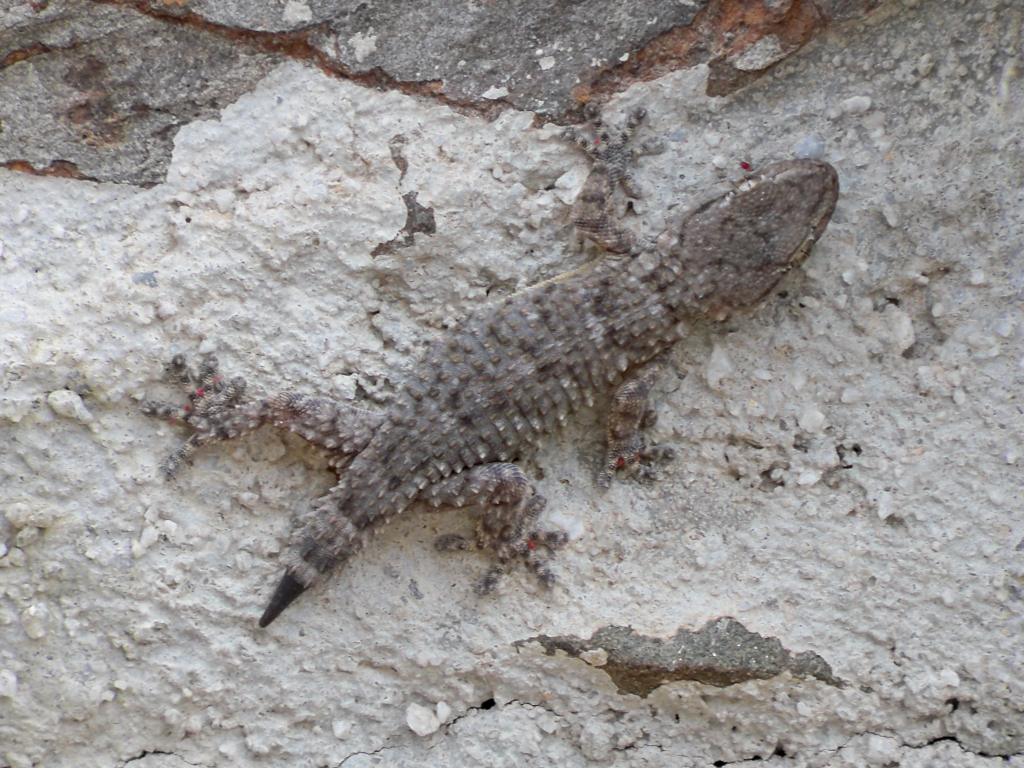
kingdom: Animalia
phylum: Chordata
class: Squamata
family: Phyllodactylidae
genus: Tarentola
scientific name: Tarentola mauritanica
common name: Moorish gecko
